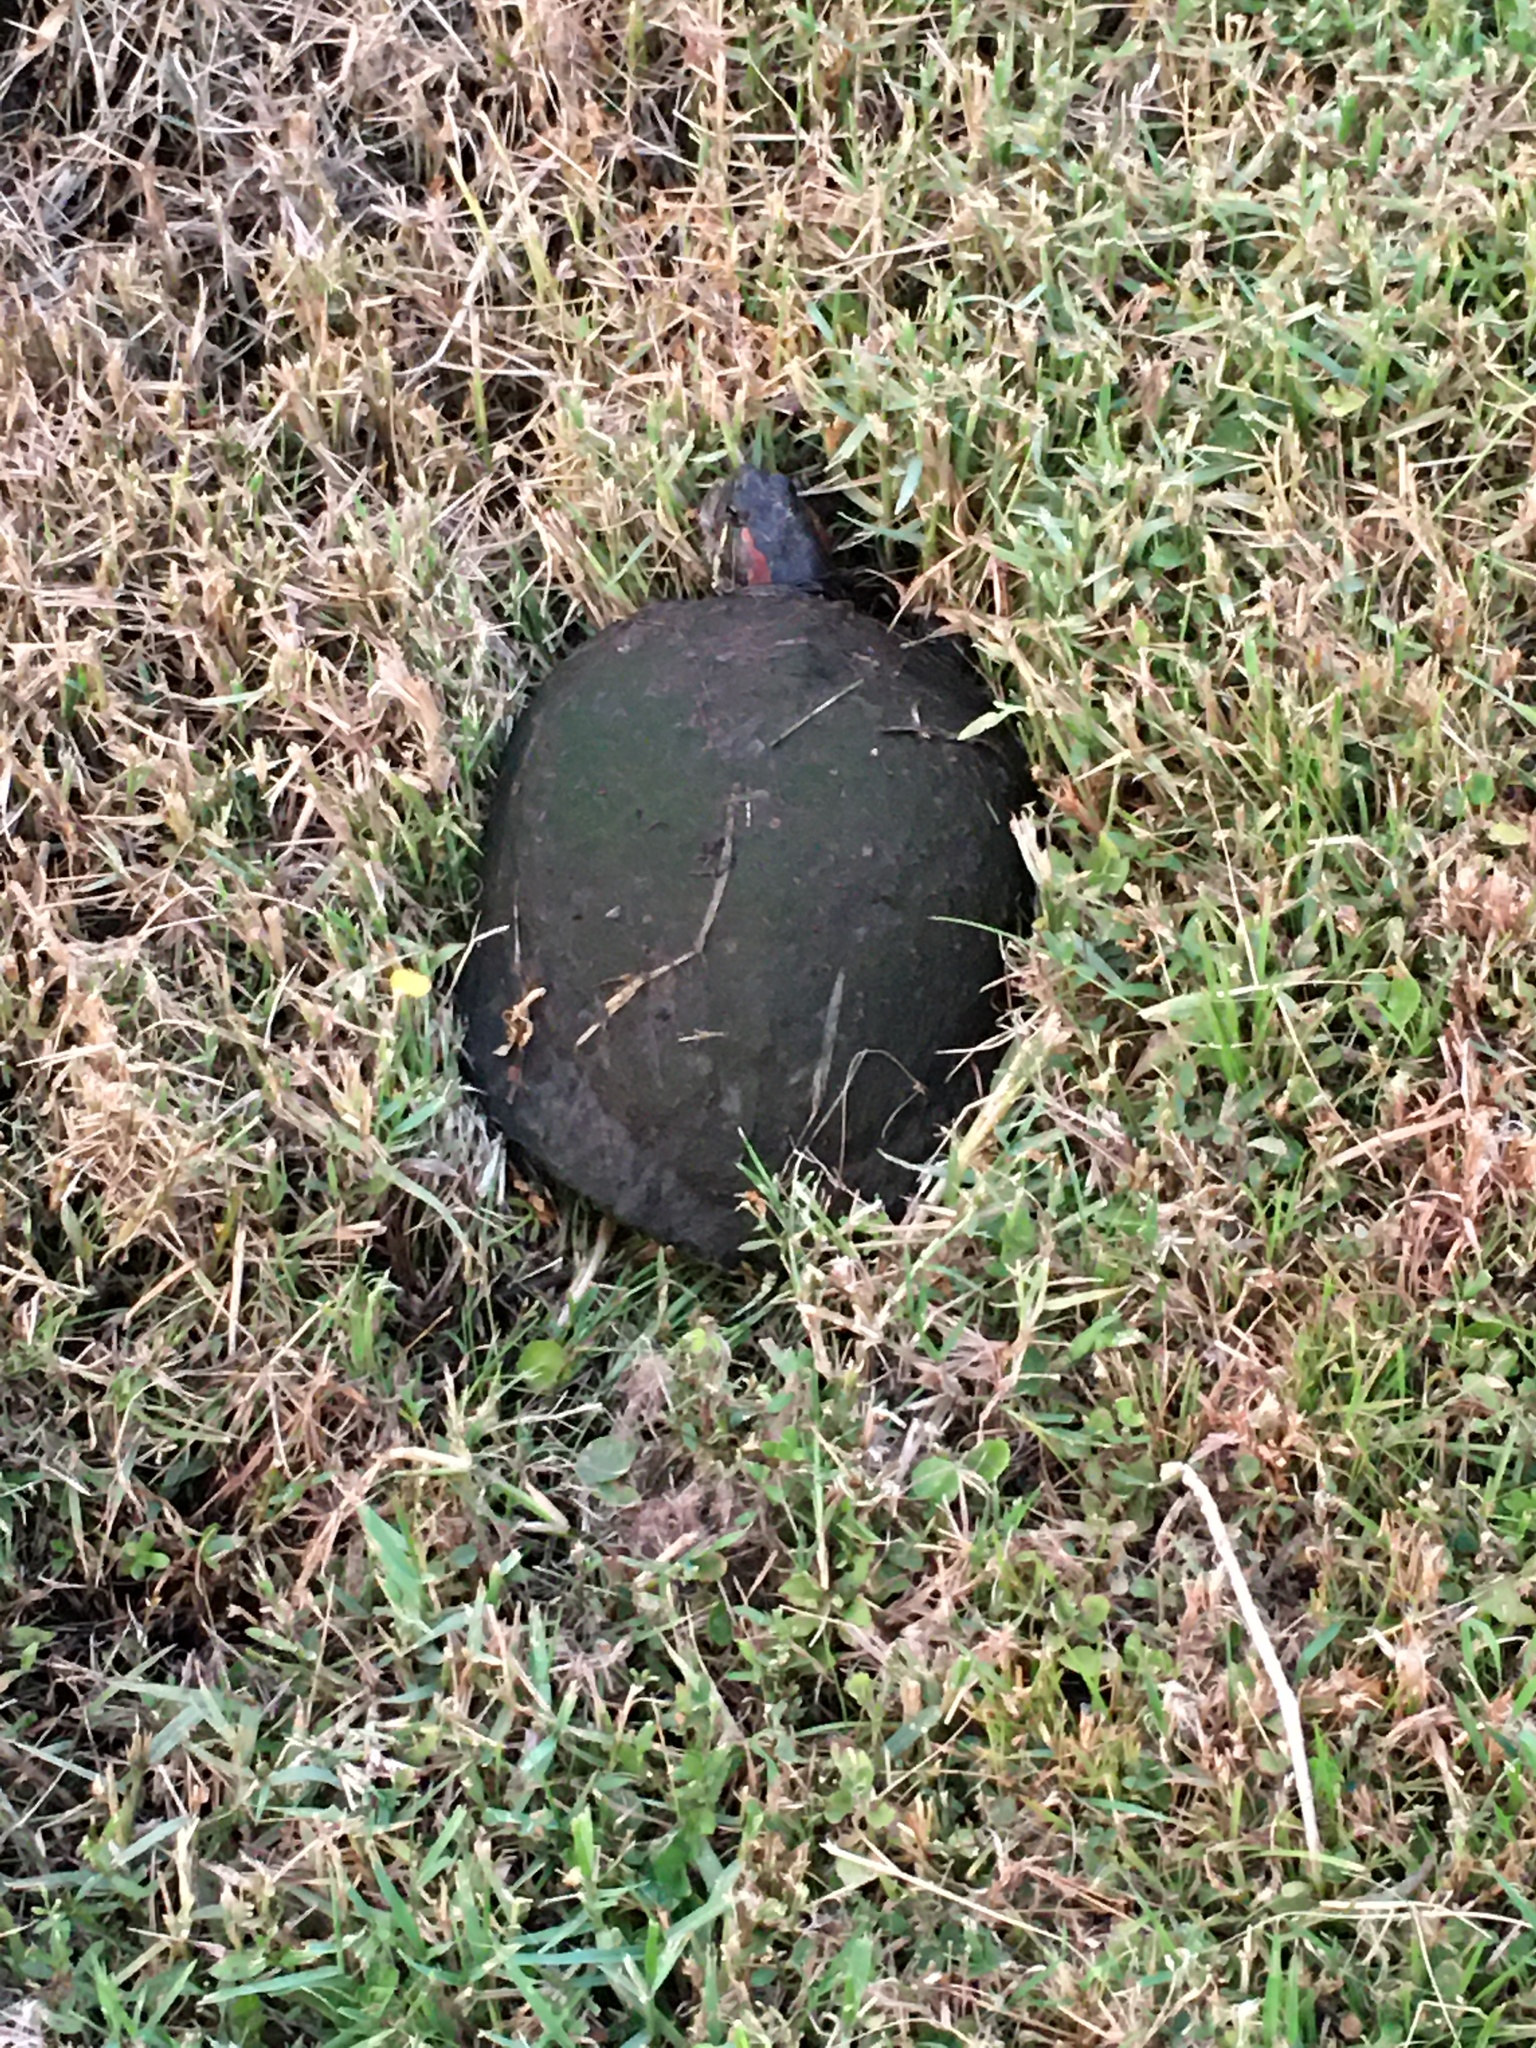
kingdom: Animalia
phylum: Chordata
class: Testudines
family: Emydidae
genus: Trachemys
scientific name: Trachemys scripta
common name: Slider
